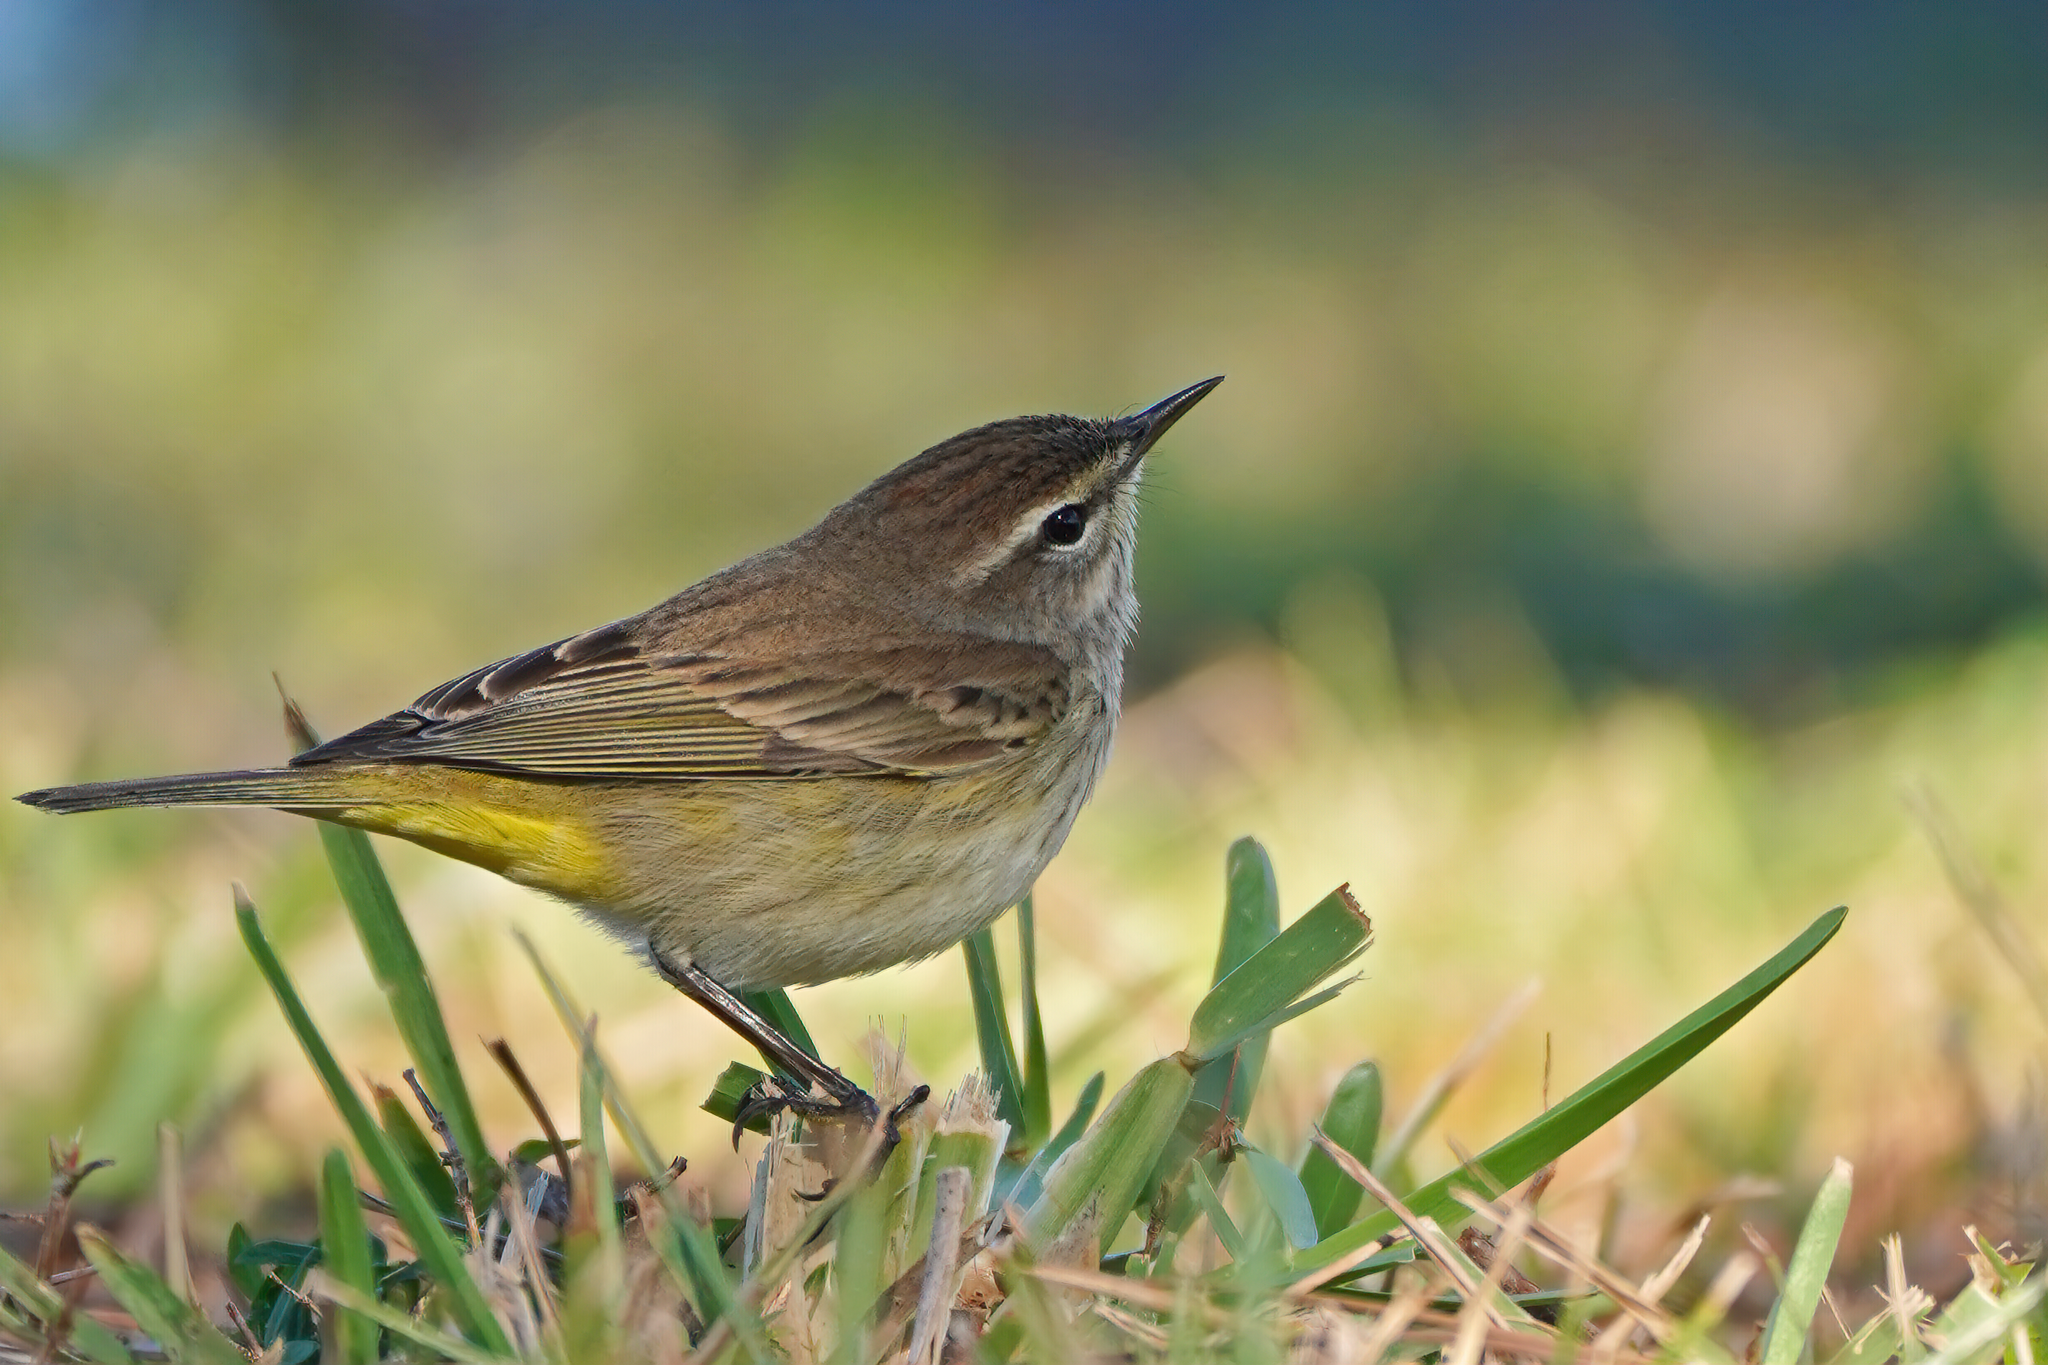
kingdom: Animalia
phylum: Chordata
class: Aves
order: Passeriformes
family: Parulidae
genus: Setophaga
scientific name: Setophaga palmarum
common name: Palm warbler
